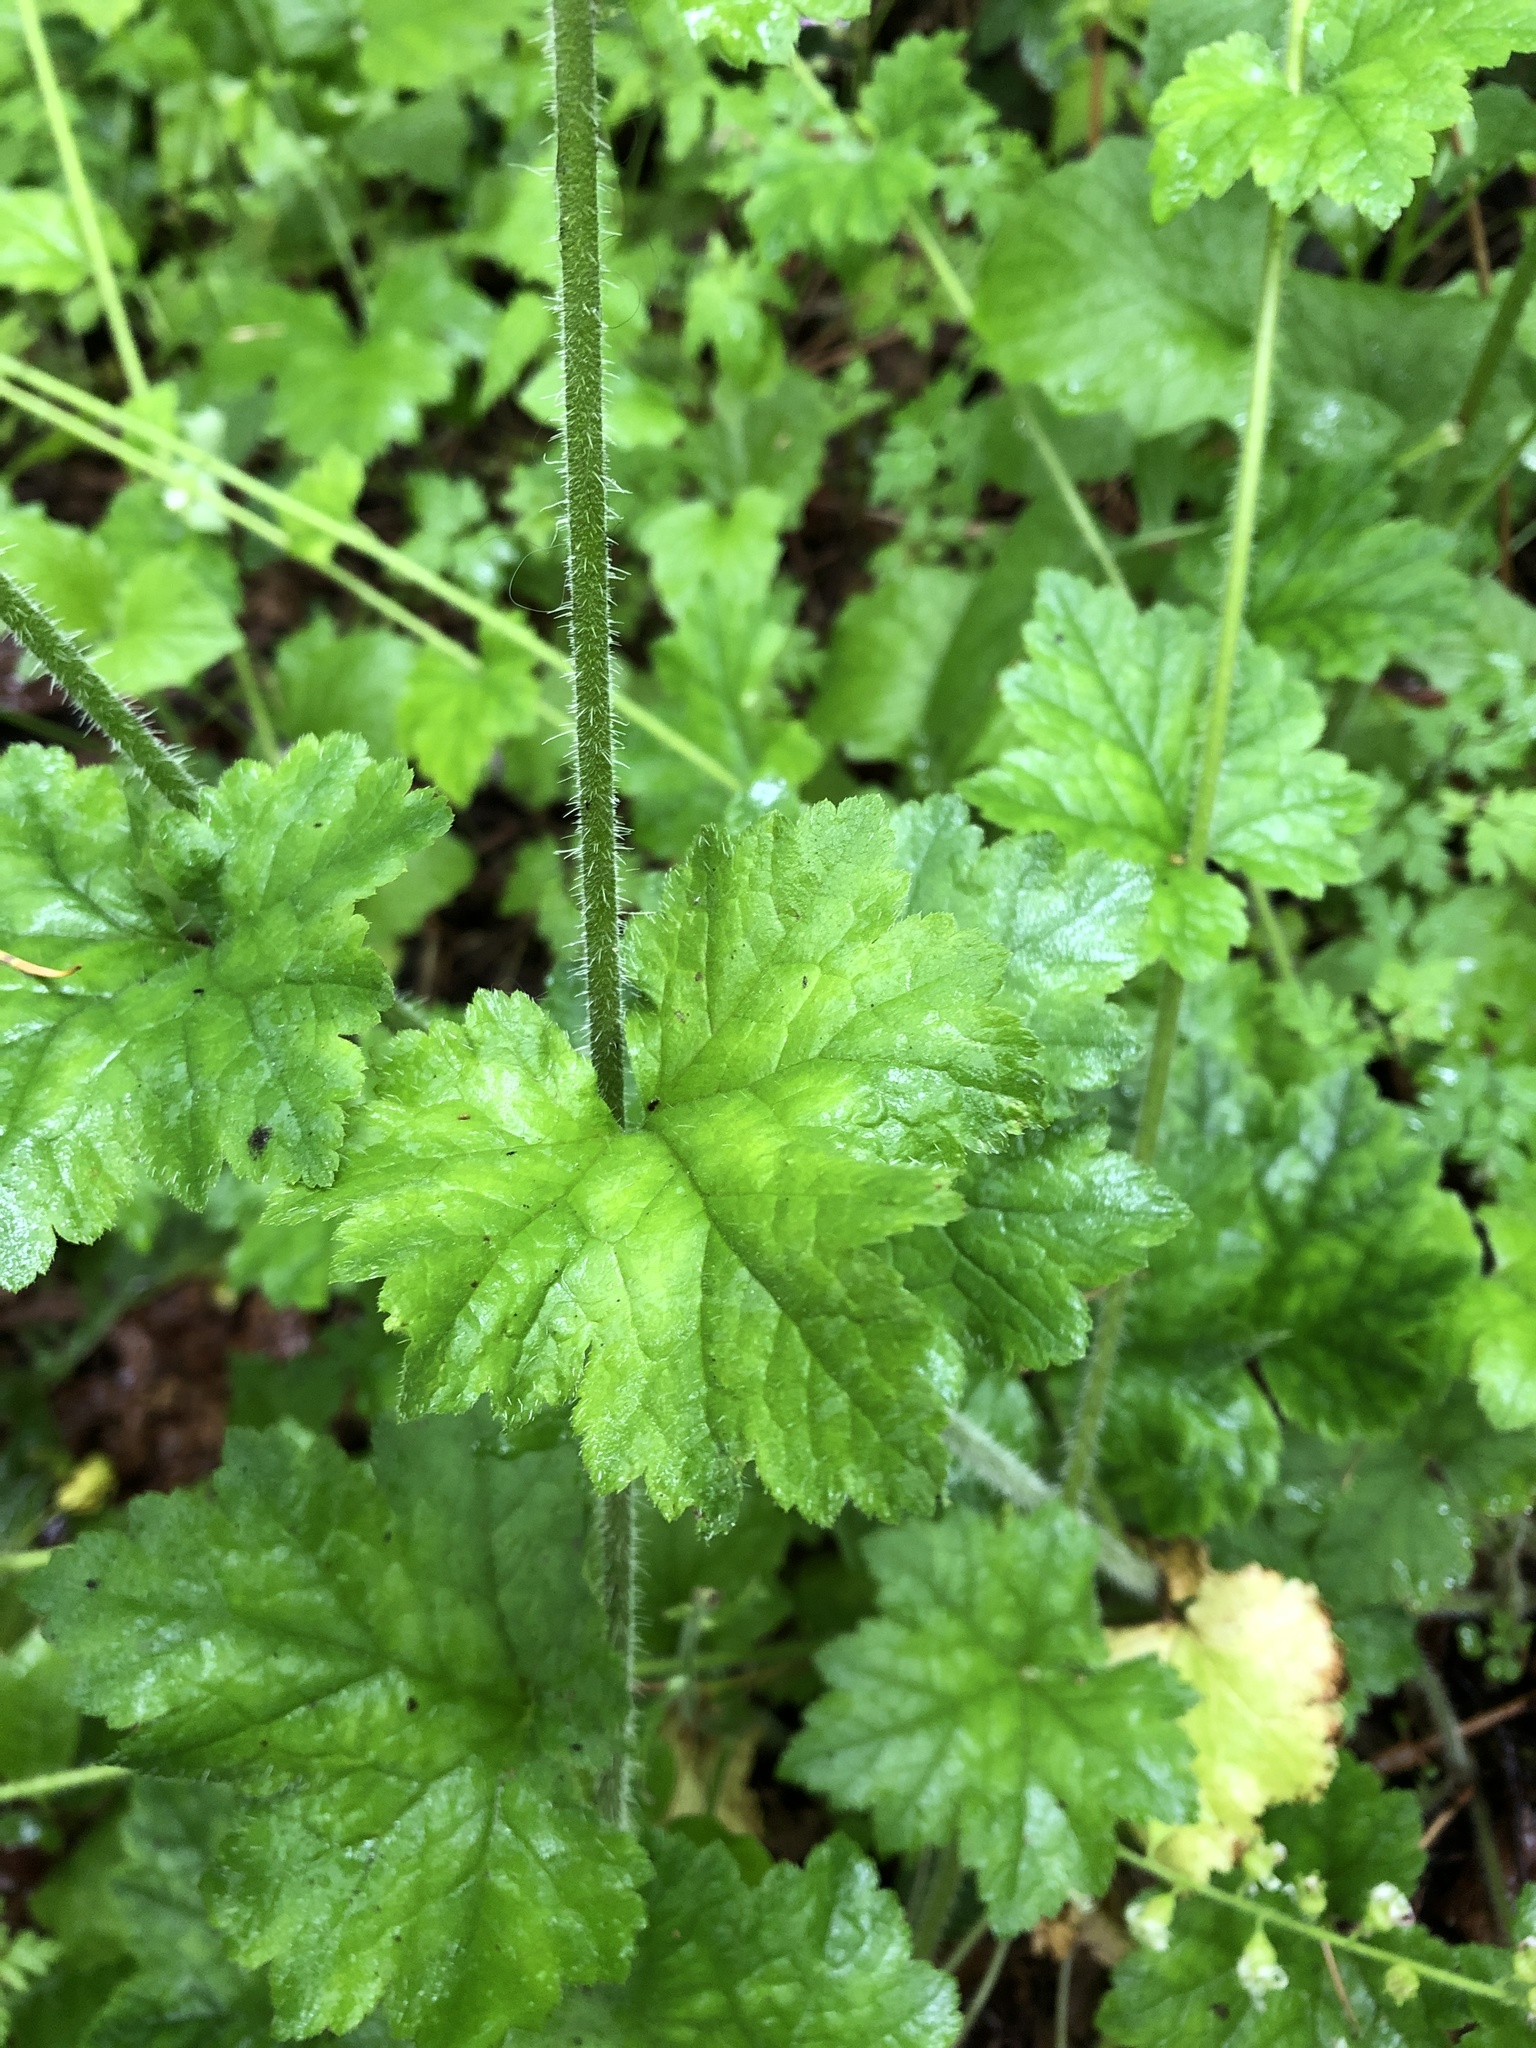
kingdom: Plantae
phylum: Tracheophyta
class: Magnoliopsida
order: Saxifragales
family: Saxifragaceae
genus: Tellima
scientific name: Tellima grandiflora
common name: Fringecups
